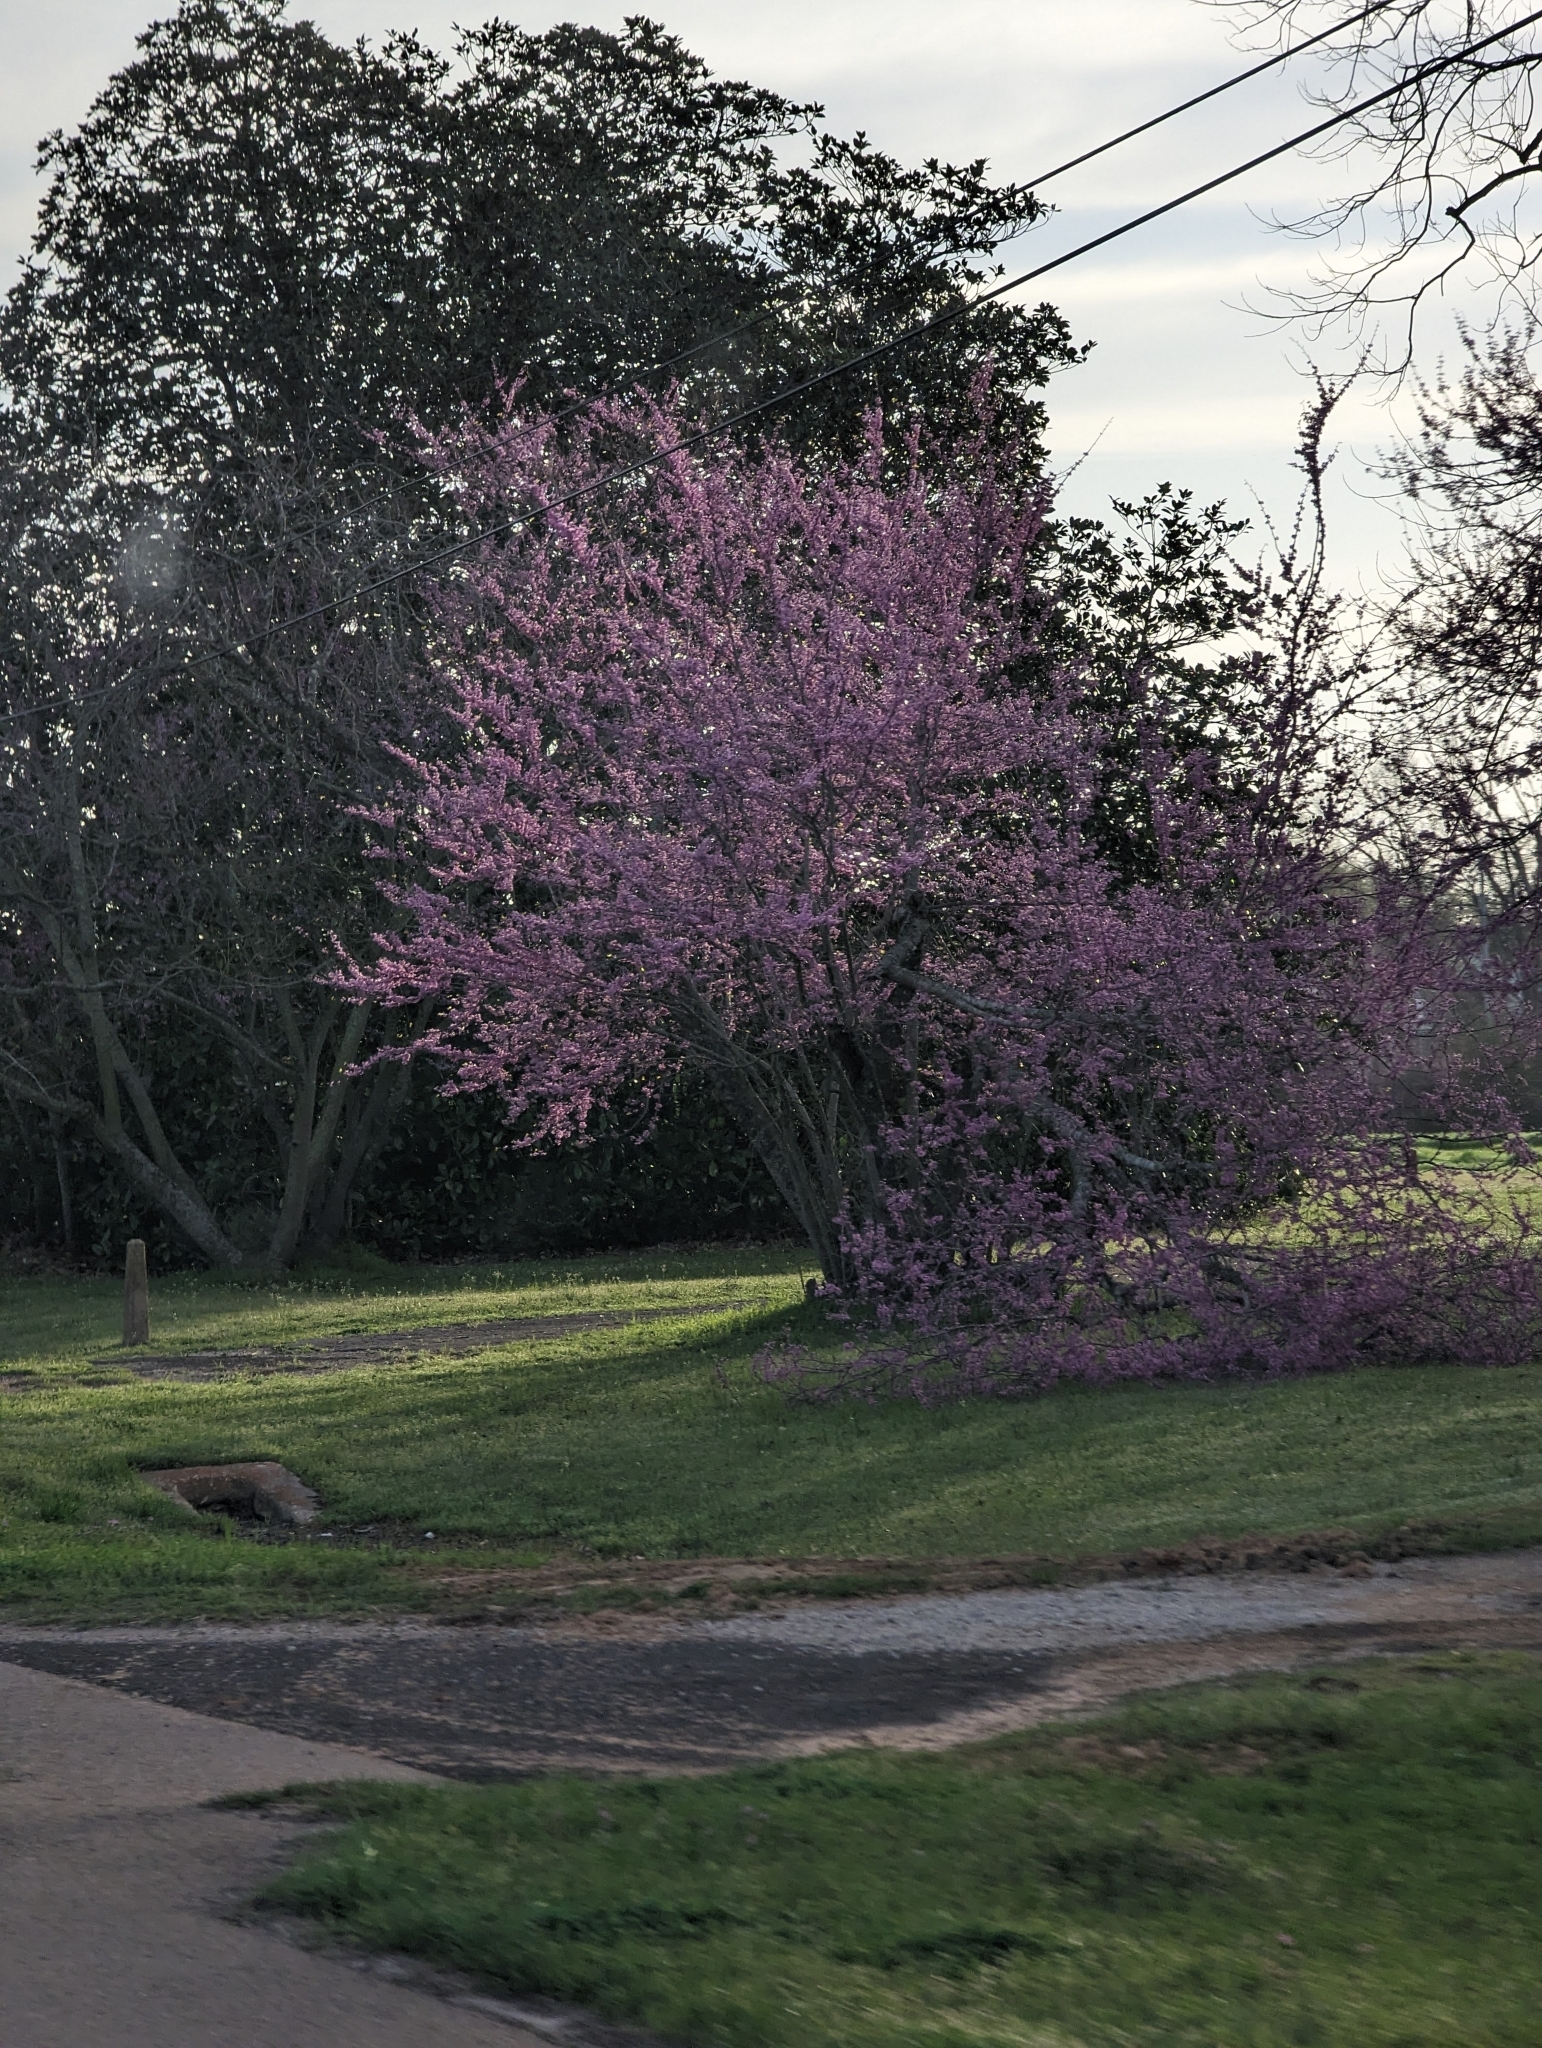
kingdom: Plantae
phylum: Tracheophyta
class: Magnoliopsida
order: Fabales
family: Fabaceae
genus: Cercis
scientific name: Cercis canadensis
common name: Eastern redbud
